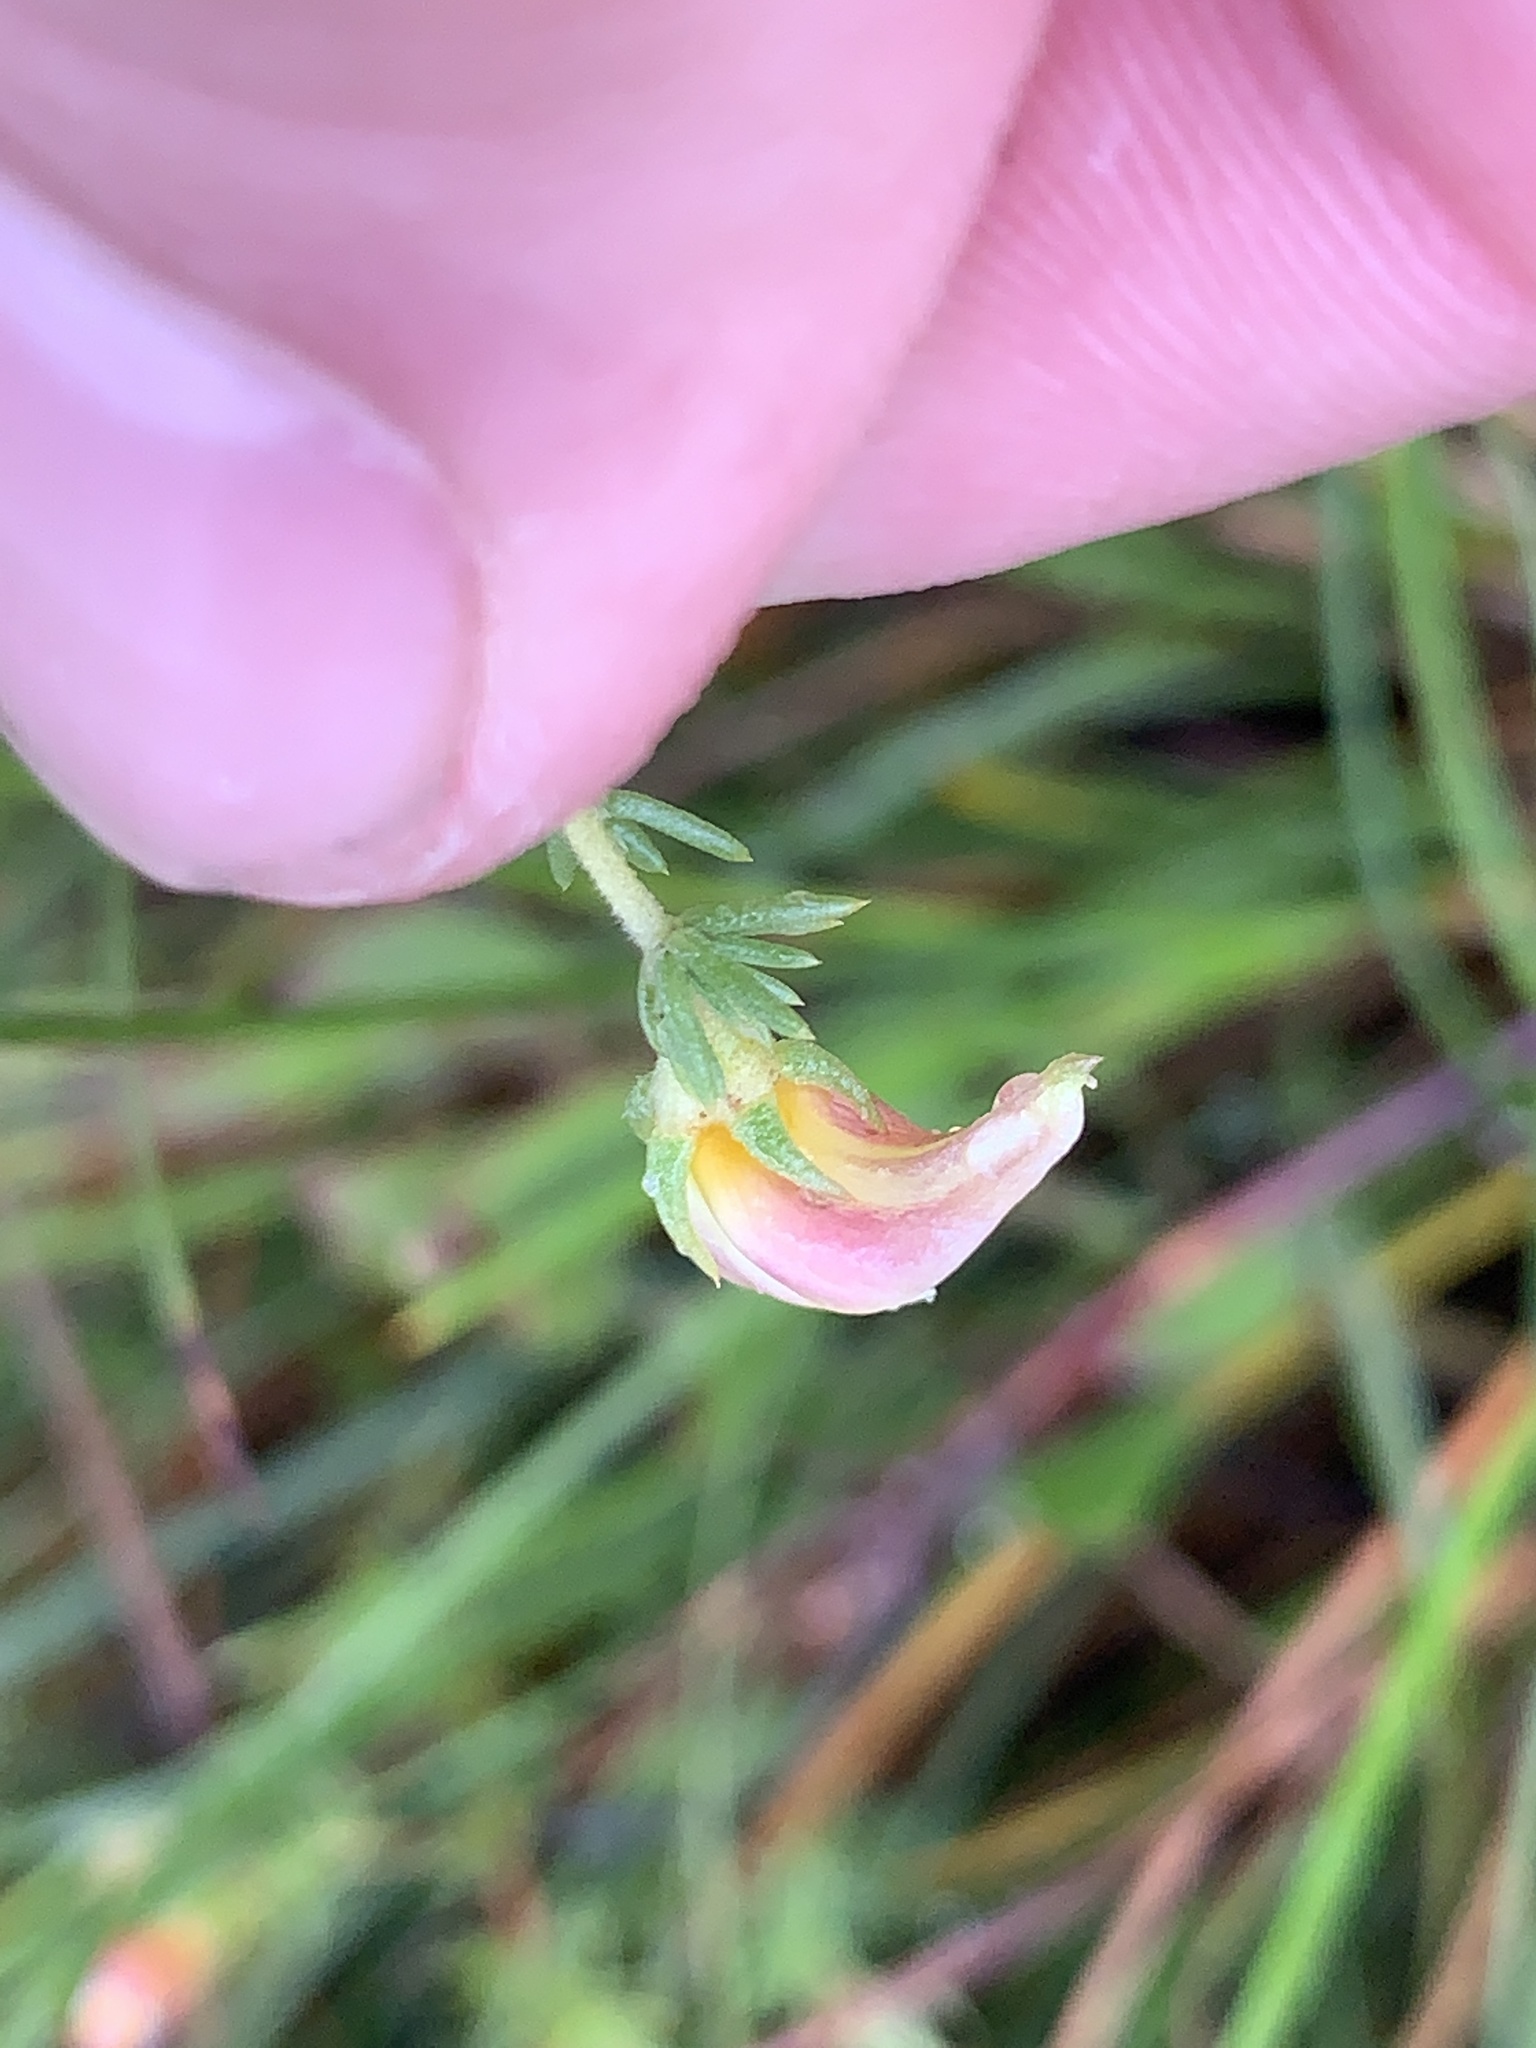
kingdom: Plantae
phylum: Tracheophyta
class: Magnoliopsida
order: Fabales
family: Fabaceae
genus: Aspalathus
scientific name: Aspalathus retroflexa
